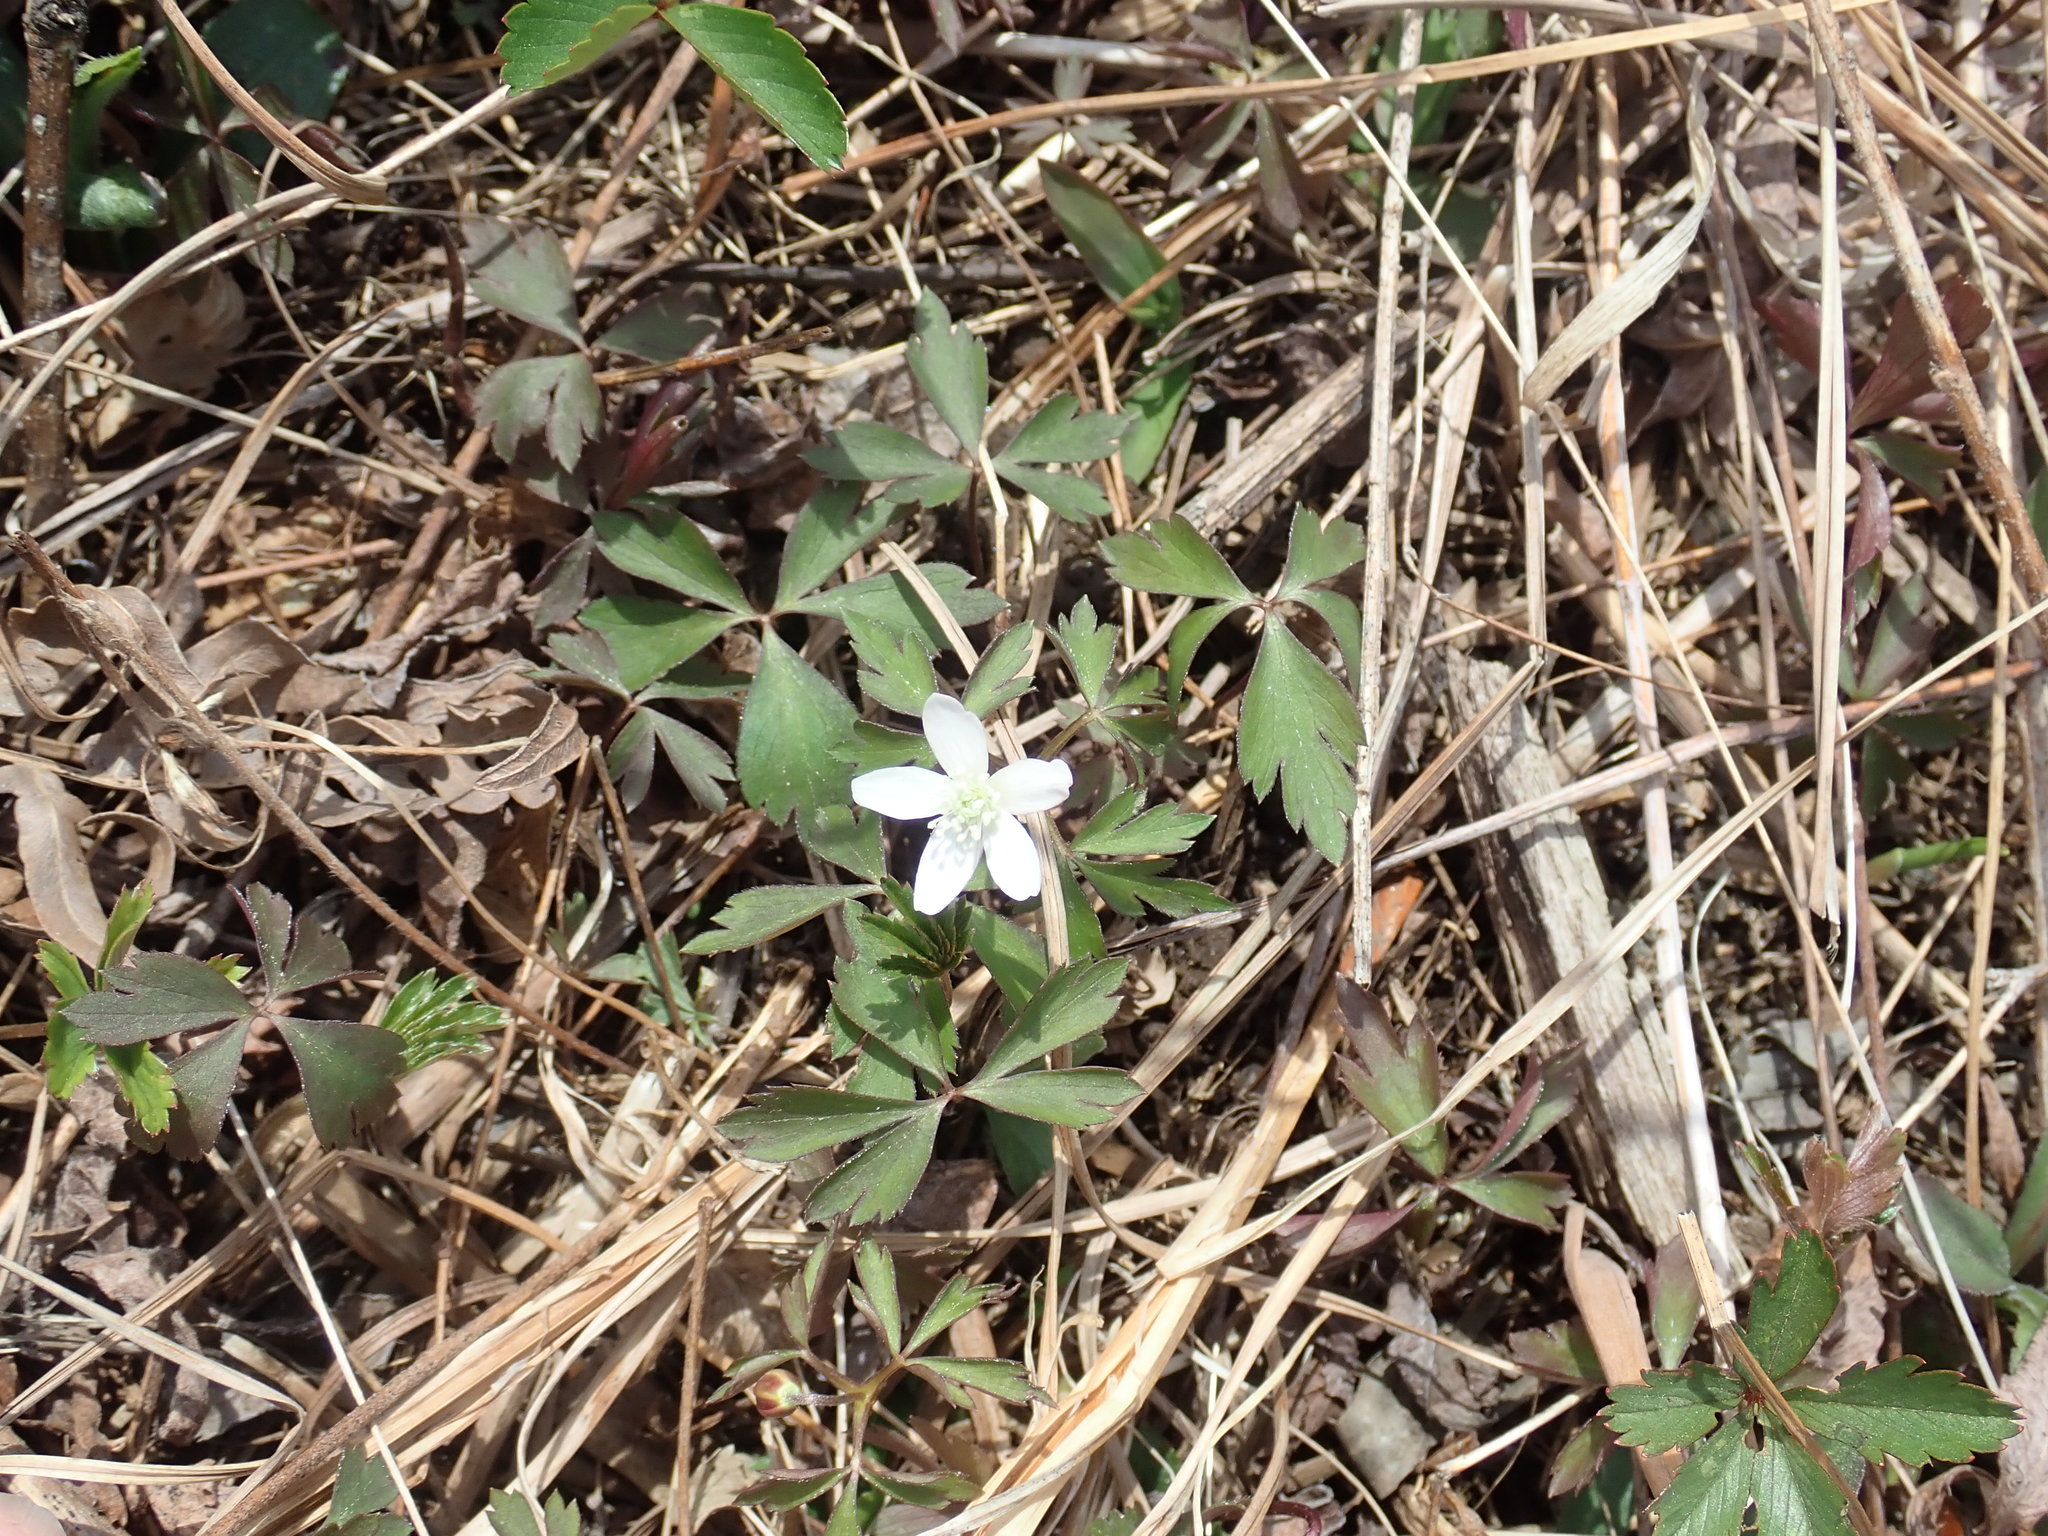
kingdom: Plantae
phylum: Tracheophyta
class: Magnoliopsida
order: Ranunculales
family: Ranunculaceae
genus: Anemone
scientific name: Anemone quinquefolia
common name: Wood anemone
